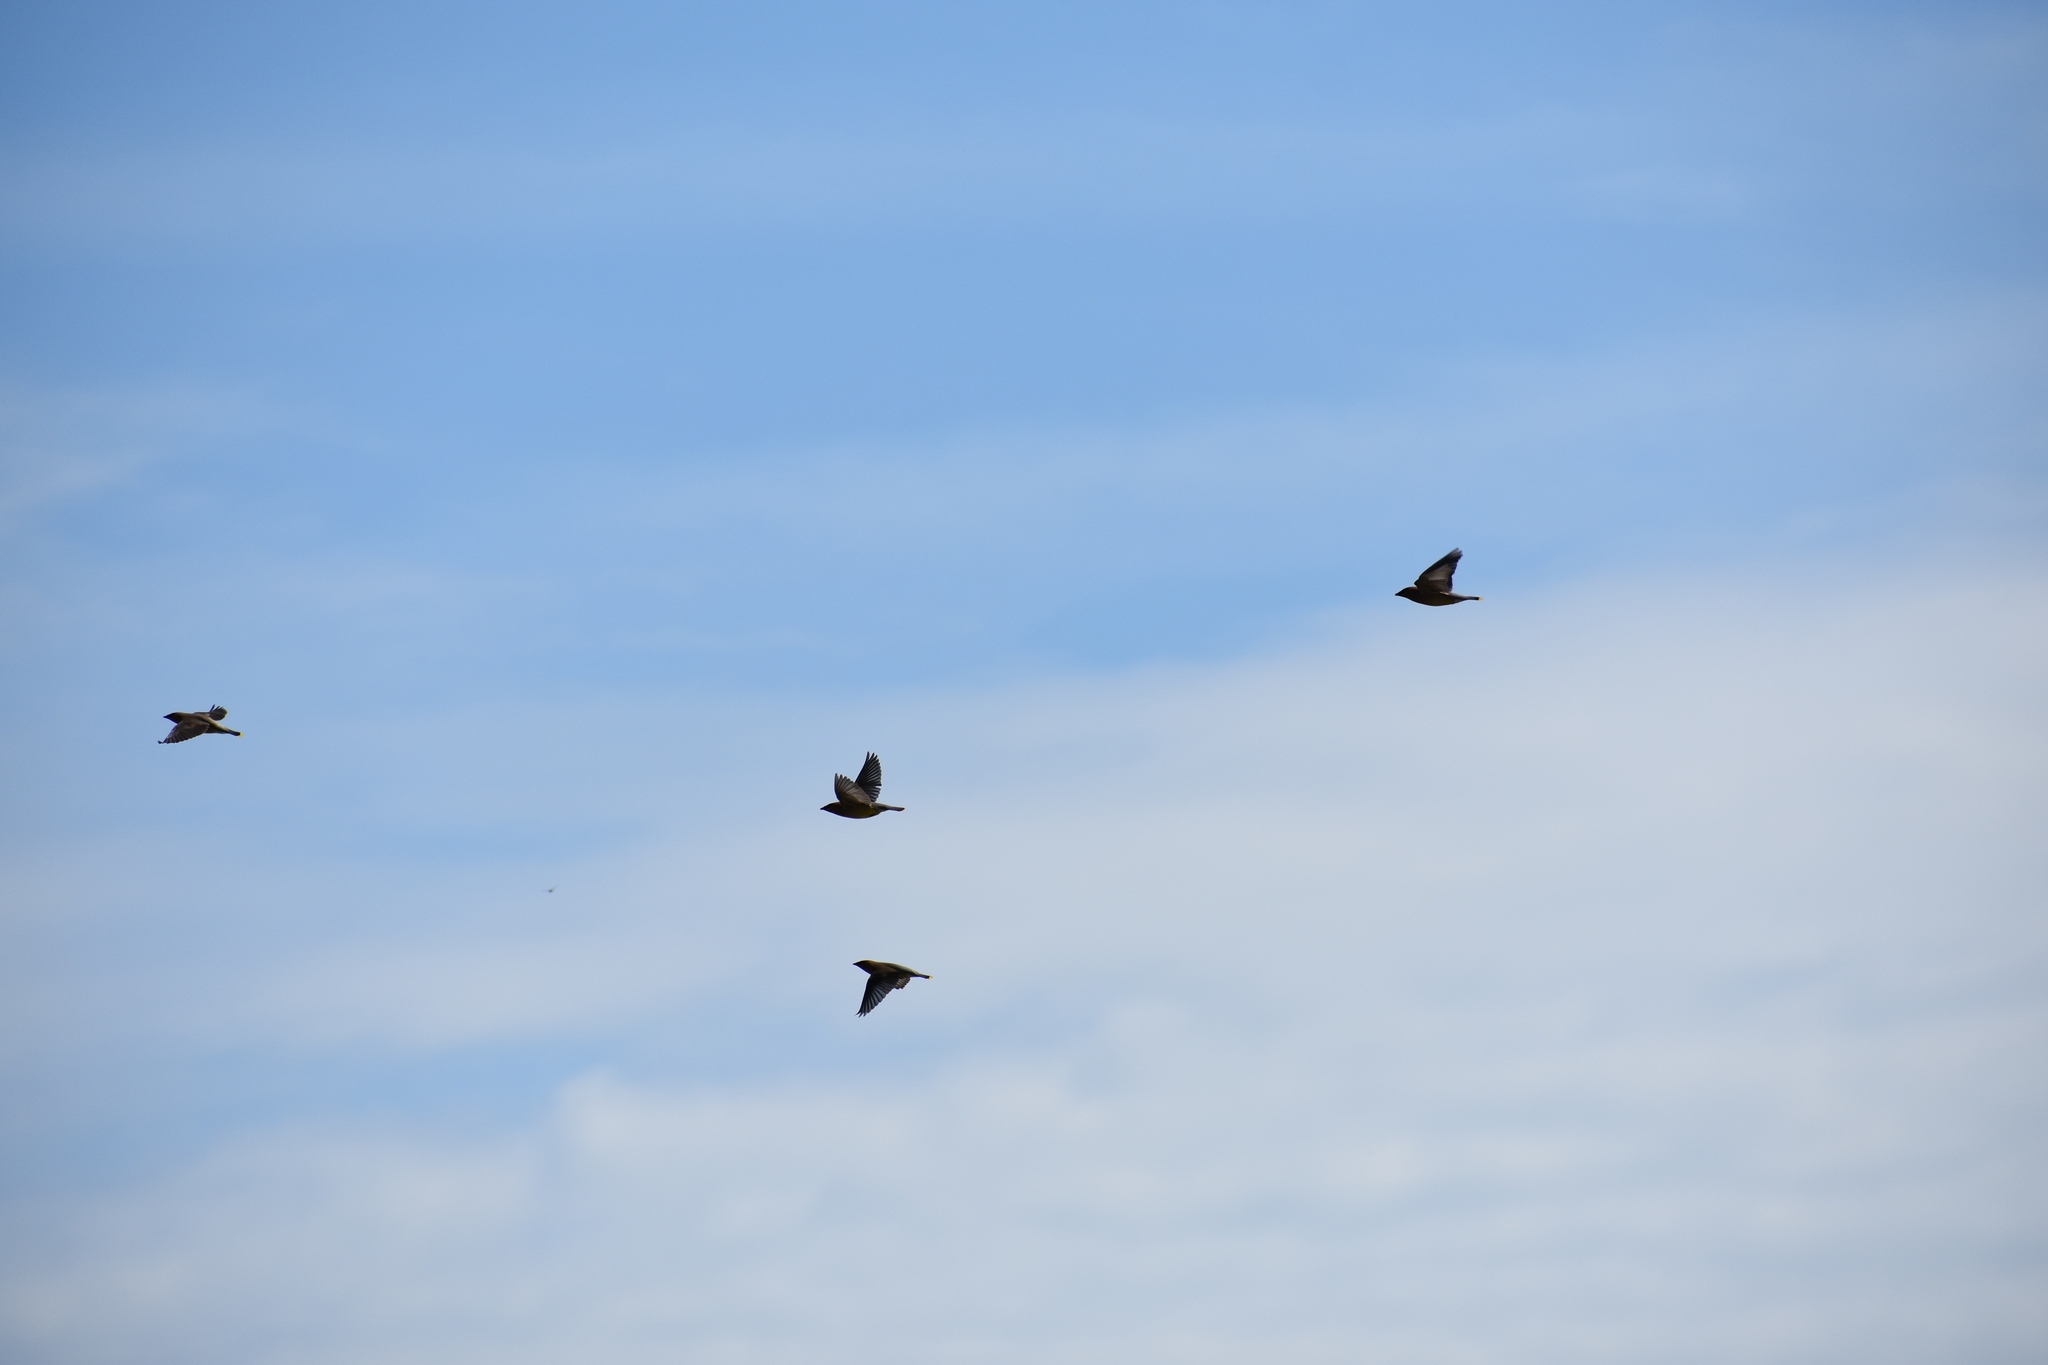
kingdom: Animalia
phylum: Chordata
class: Aves
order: Passeriformes
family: Bombycillidae
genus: Bombycilla
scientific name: Bombycilla cedrorum
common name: Cedar waxwing
